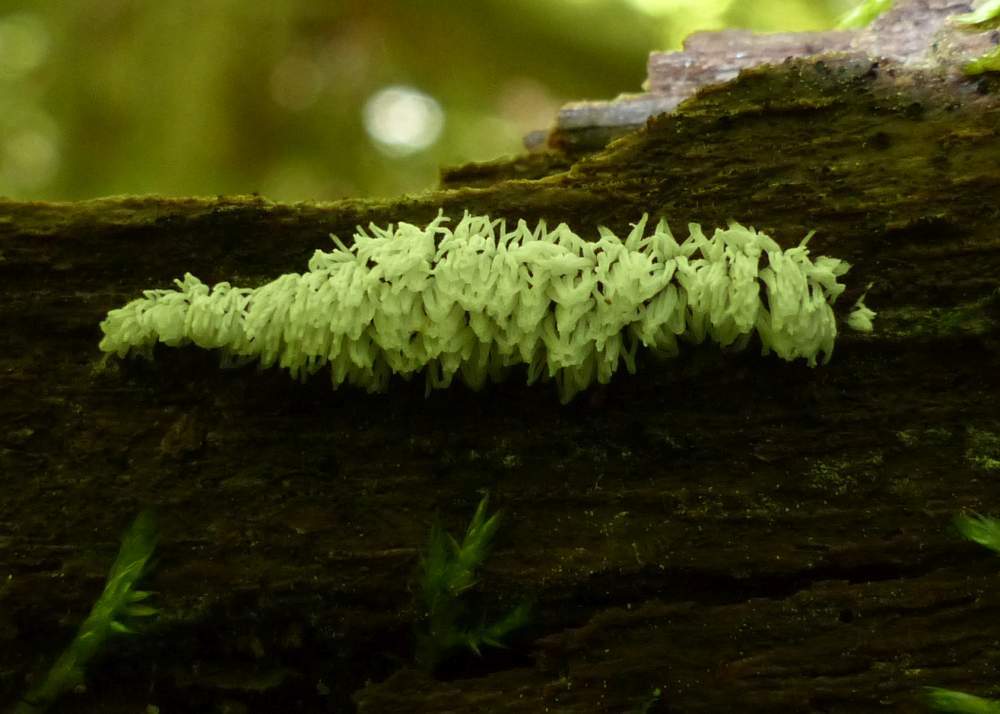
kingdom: Protozoa
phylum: Mycetozoa
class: Protosteliomycetes
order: Ceratiomyxales
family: Ceratiomyxaceae
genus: Ceratiomyxa
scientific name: Ceratiomyxa fruticulosa
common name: Honeycomb coral slime mold
